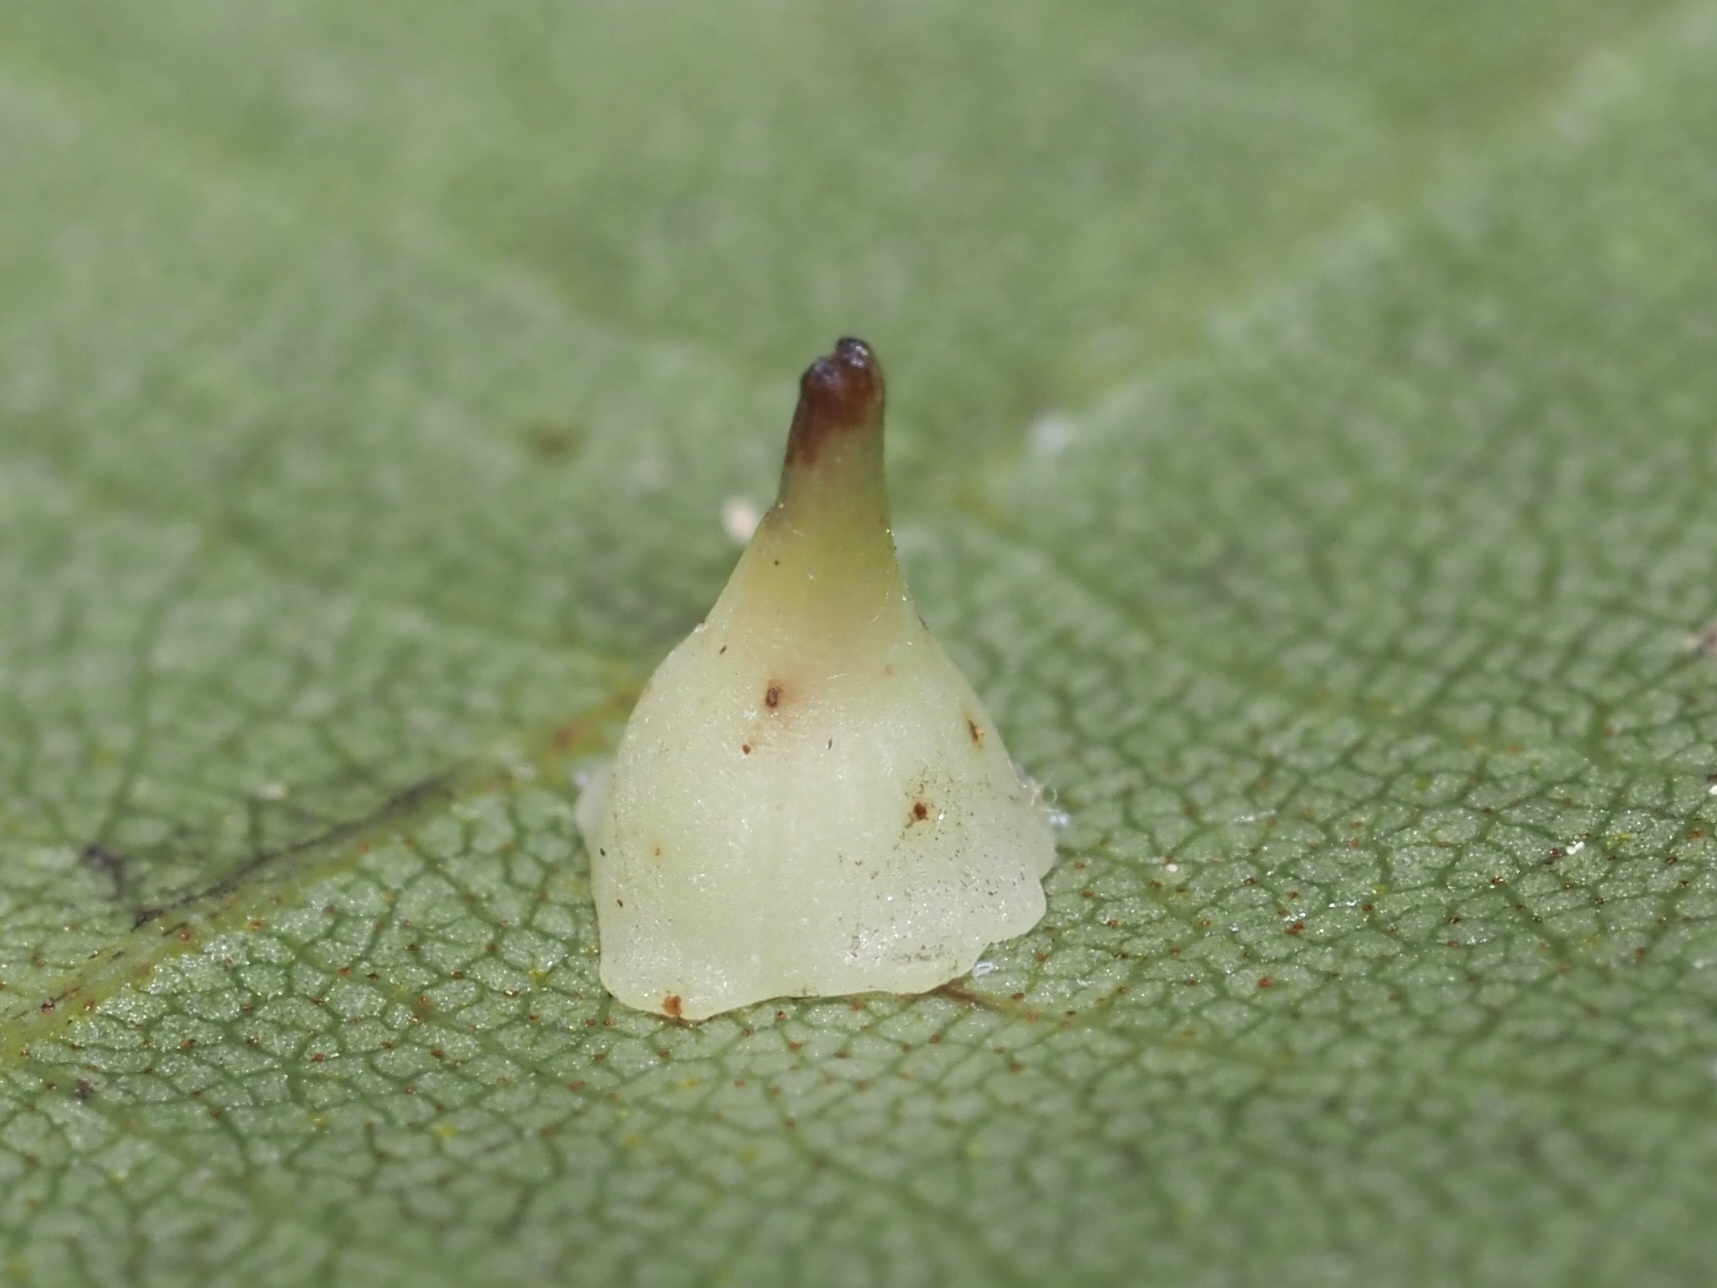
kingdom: Animalia
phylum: Arthropoda
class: Insecta
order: Diptera
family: Cecidomyiidae
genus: Caryomyia
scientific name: Caryomyia sanguinolenta
